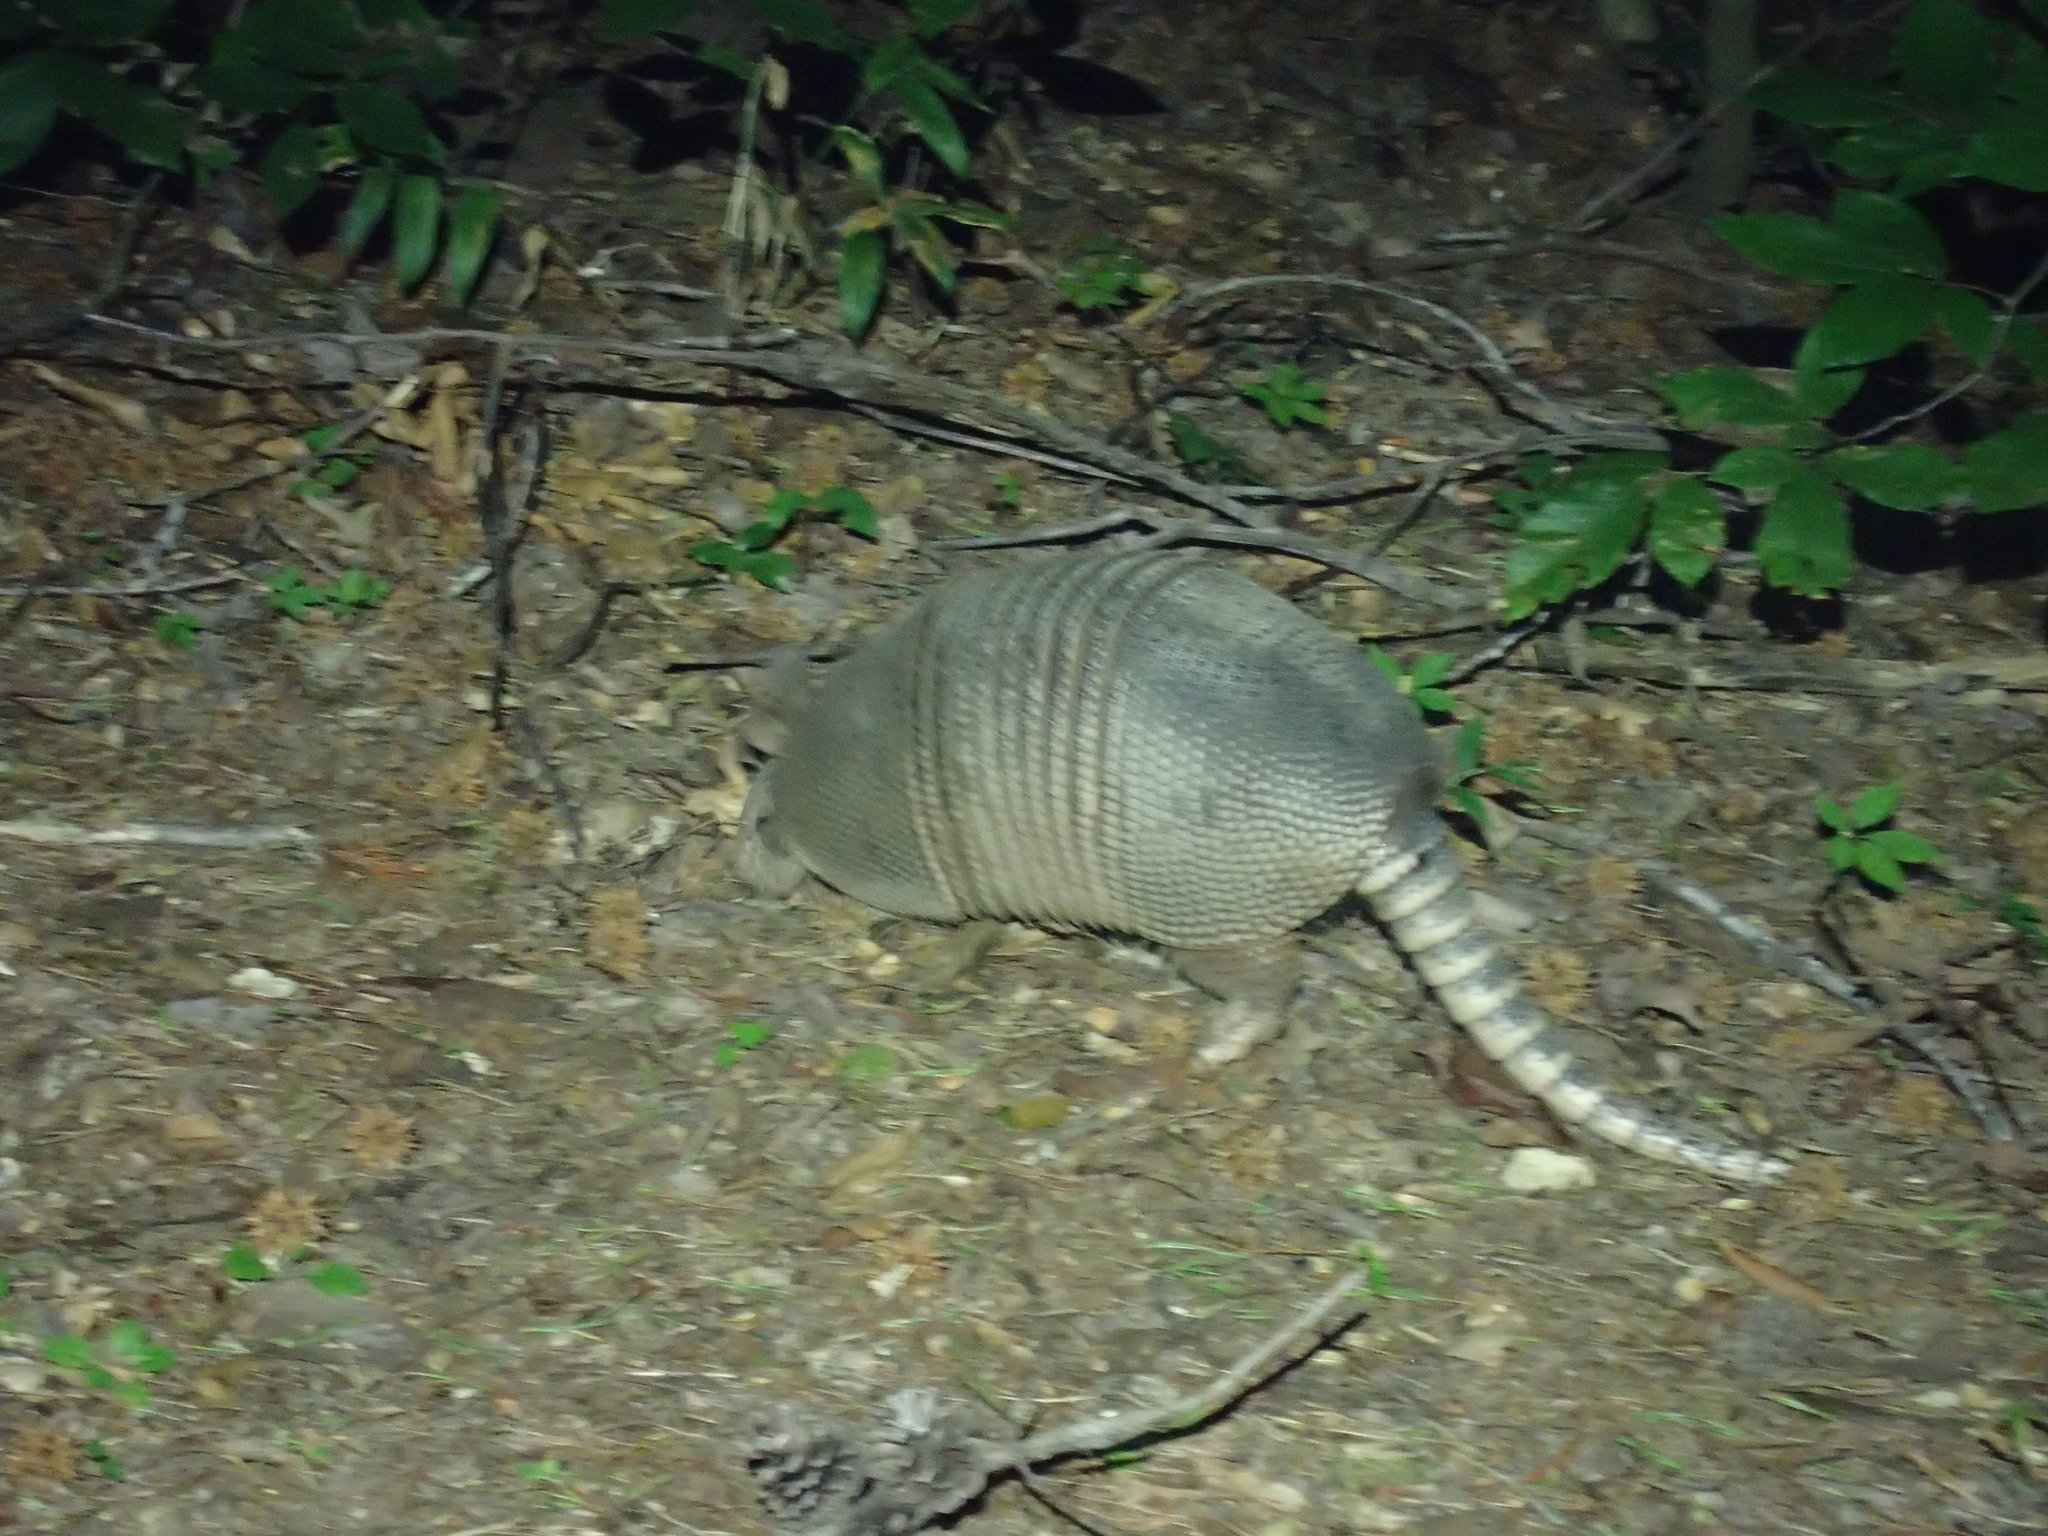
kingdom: Animalia
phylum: Chordata
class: Mammalia
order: Cingulata
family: Dasypodidae
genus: Dasypus
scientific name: Dasypus novemcinctus
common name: Nine-banded armadillo
